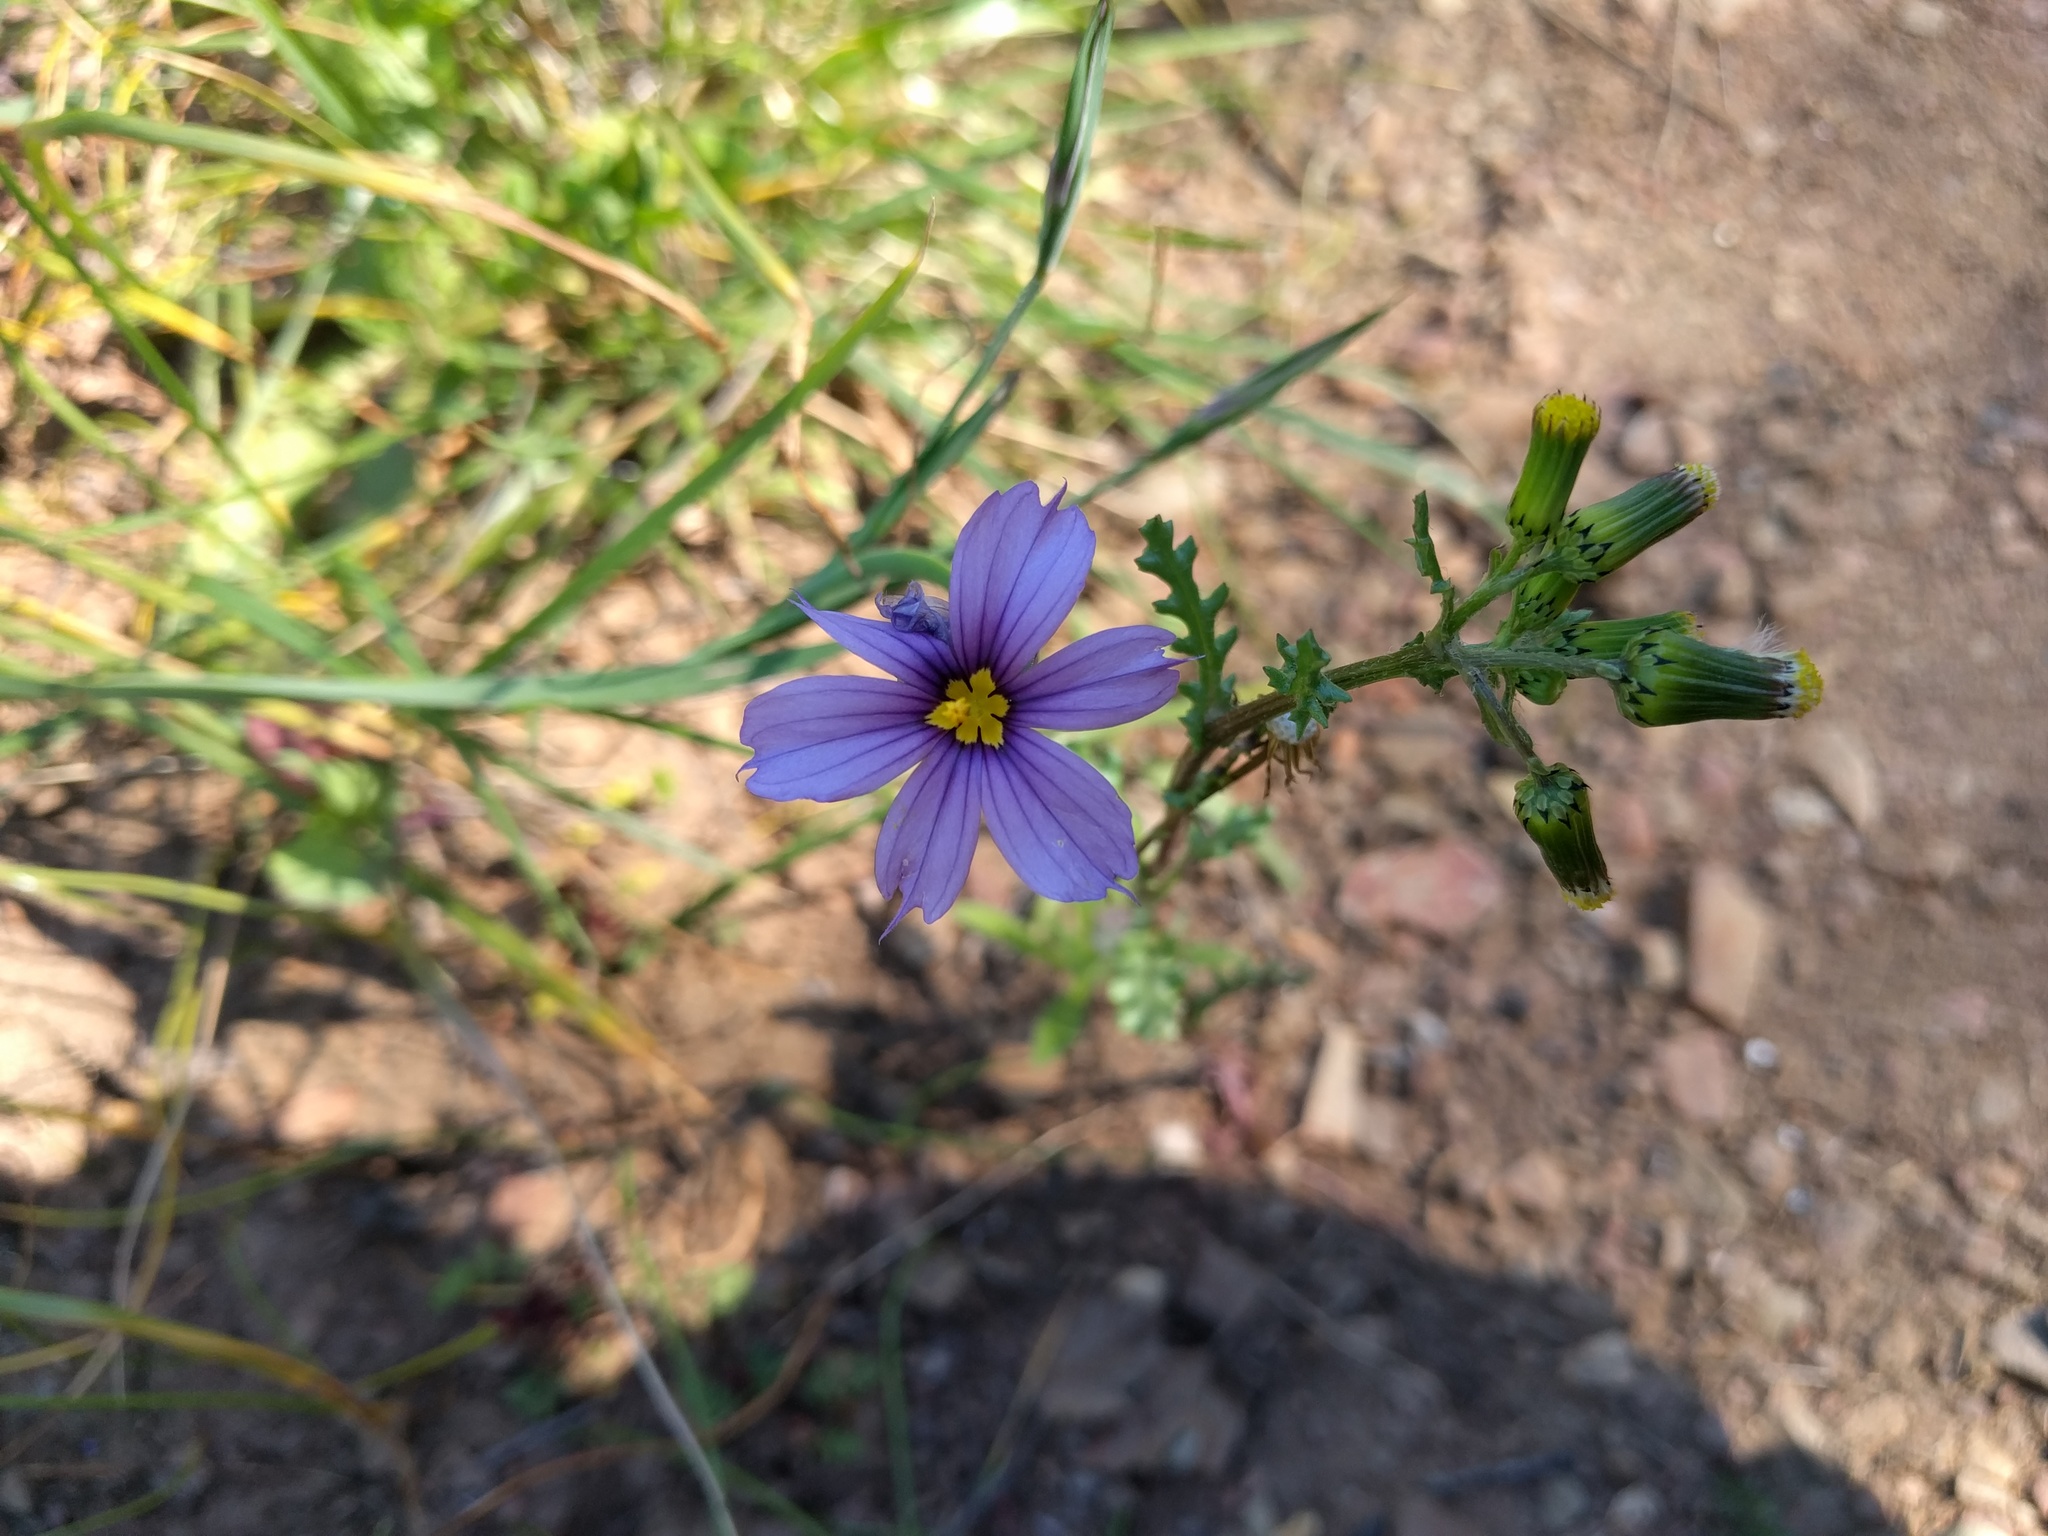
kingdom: Plantae
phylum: Tracheophyta
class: Liliopsida
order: Asparagales
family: Iridaceae
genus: Sisyrinchium
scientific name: Sisyrinchium bellum
